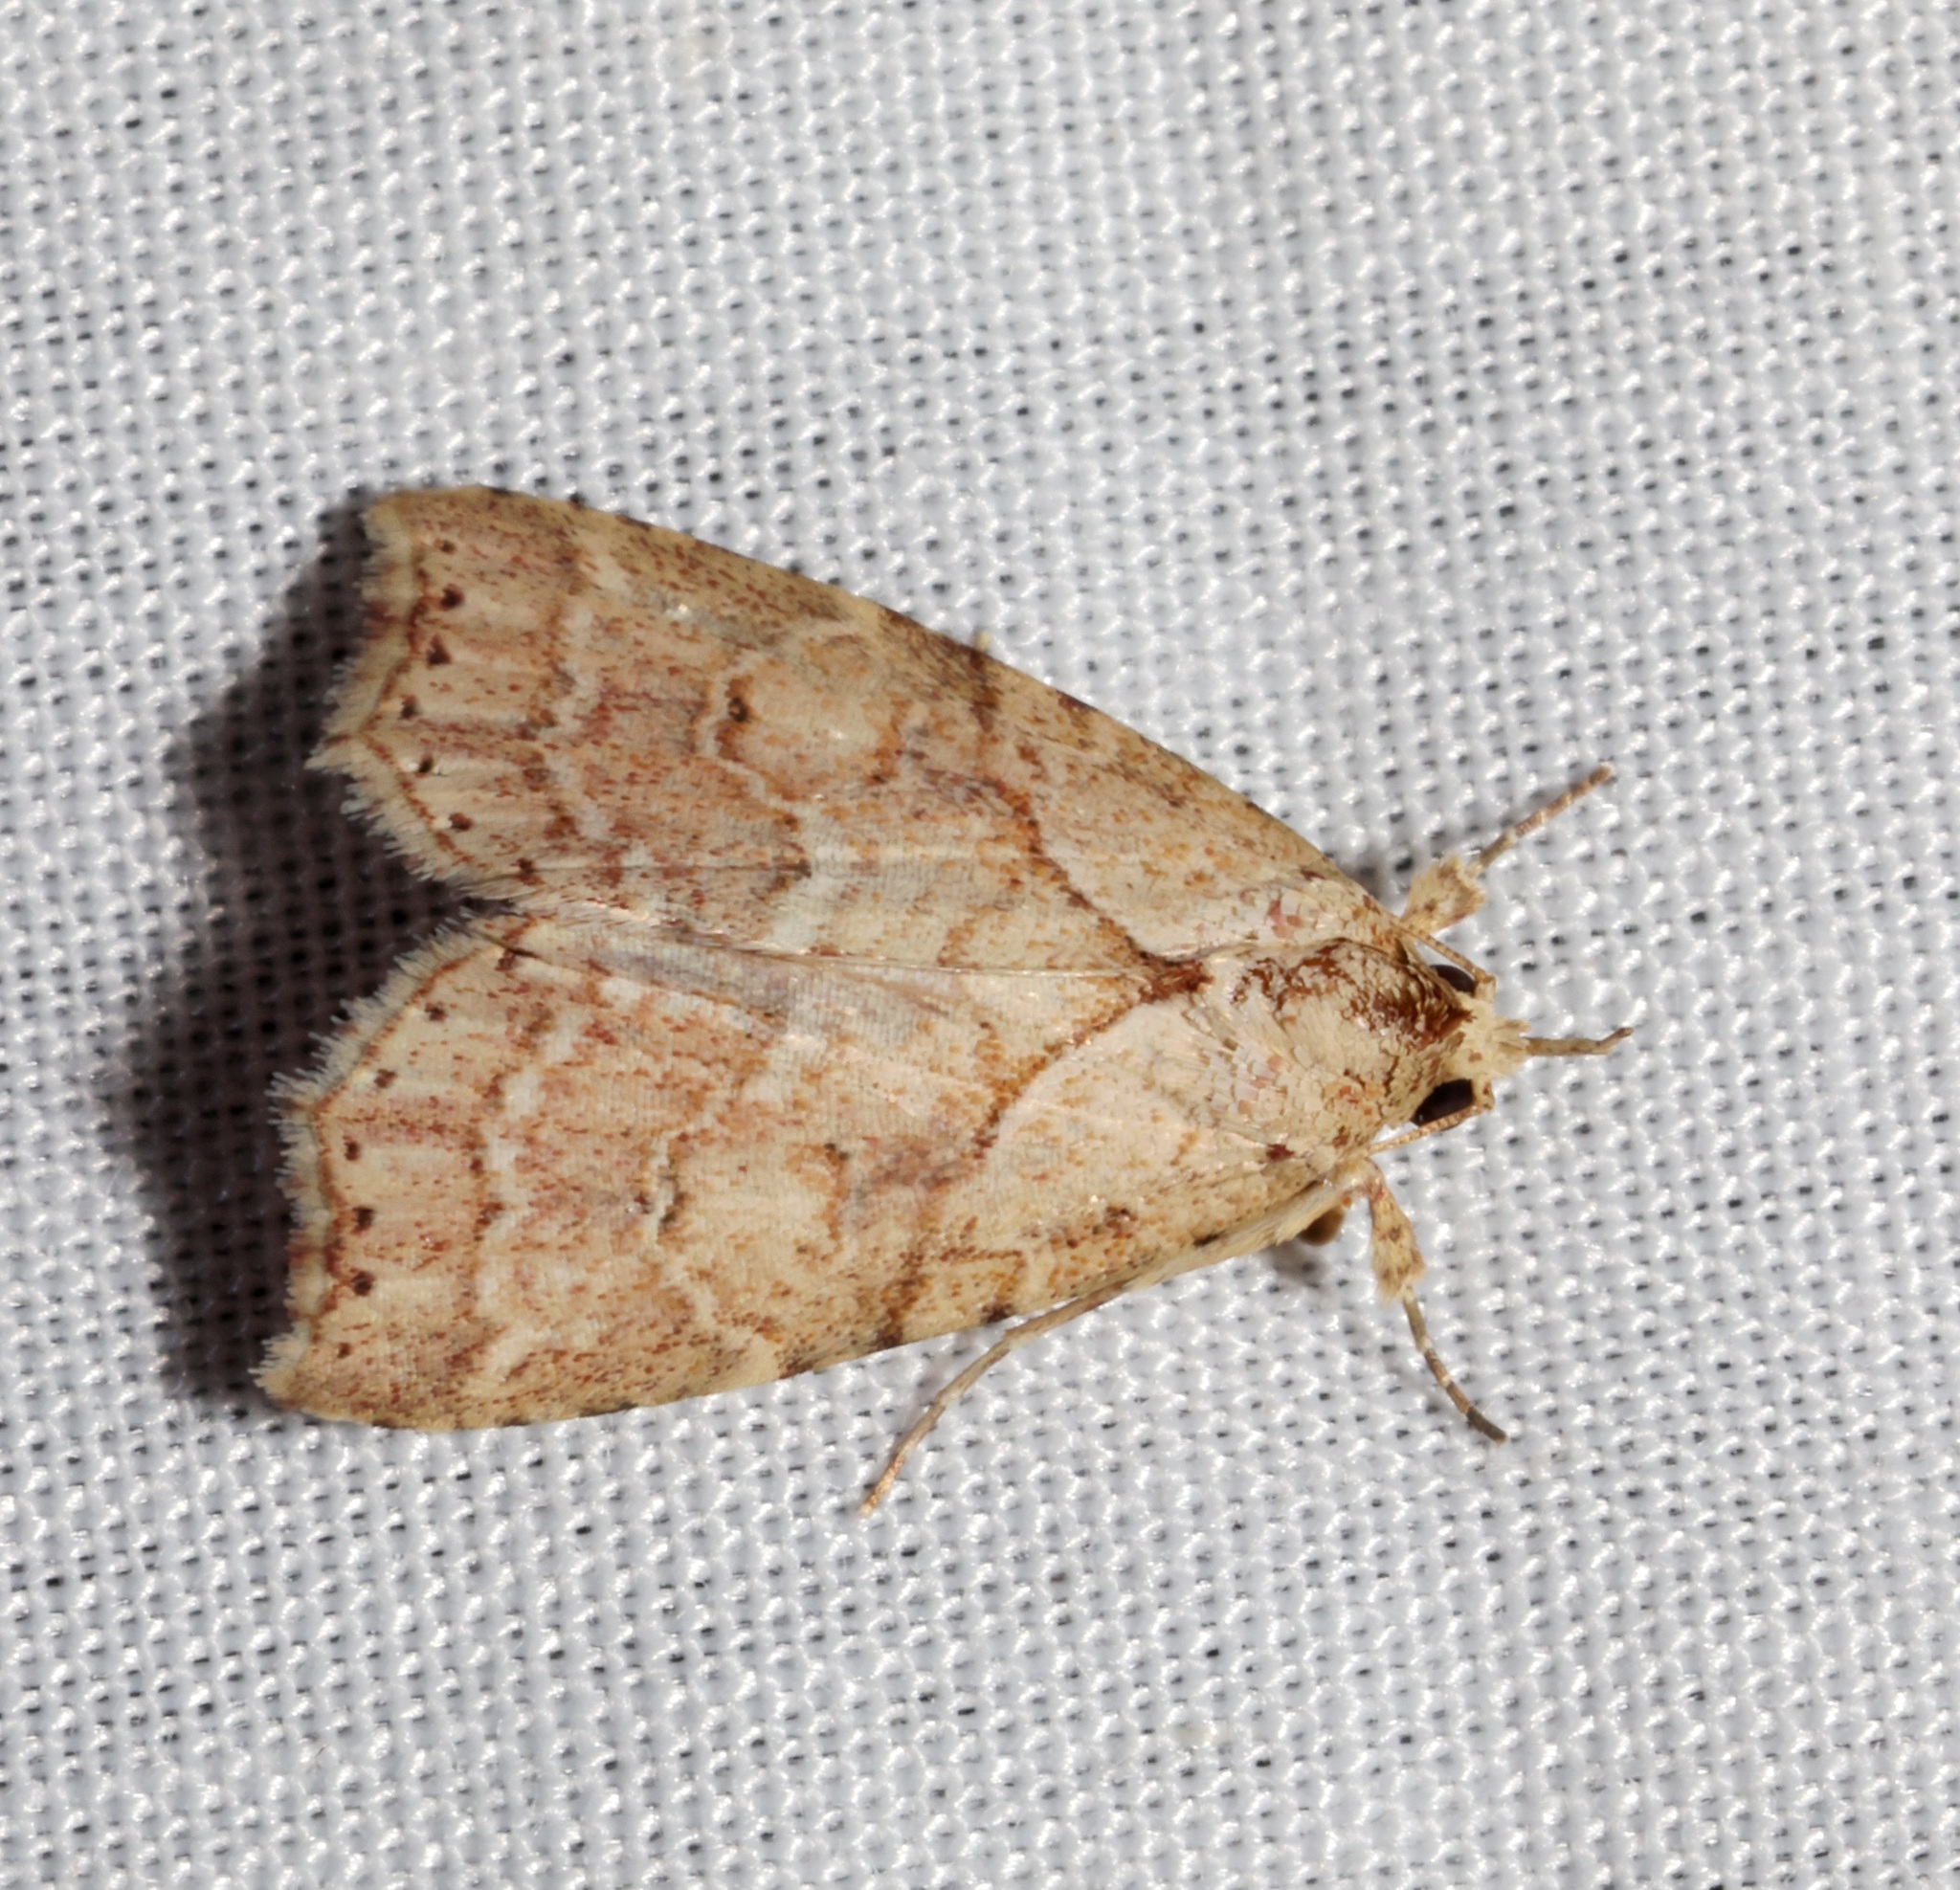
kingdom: Animalia
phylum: Arthropoda
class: Insecta
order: Lepidoptera
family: Erebidae
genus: Olulis
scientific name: Olulis puncticinctalis
